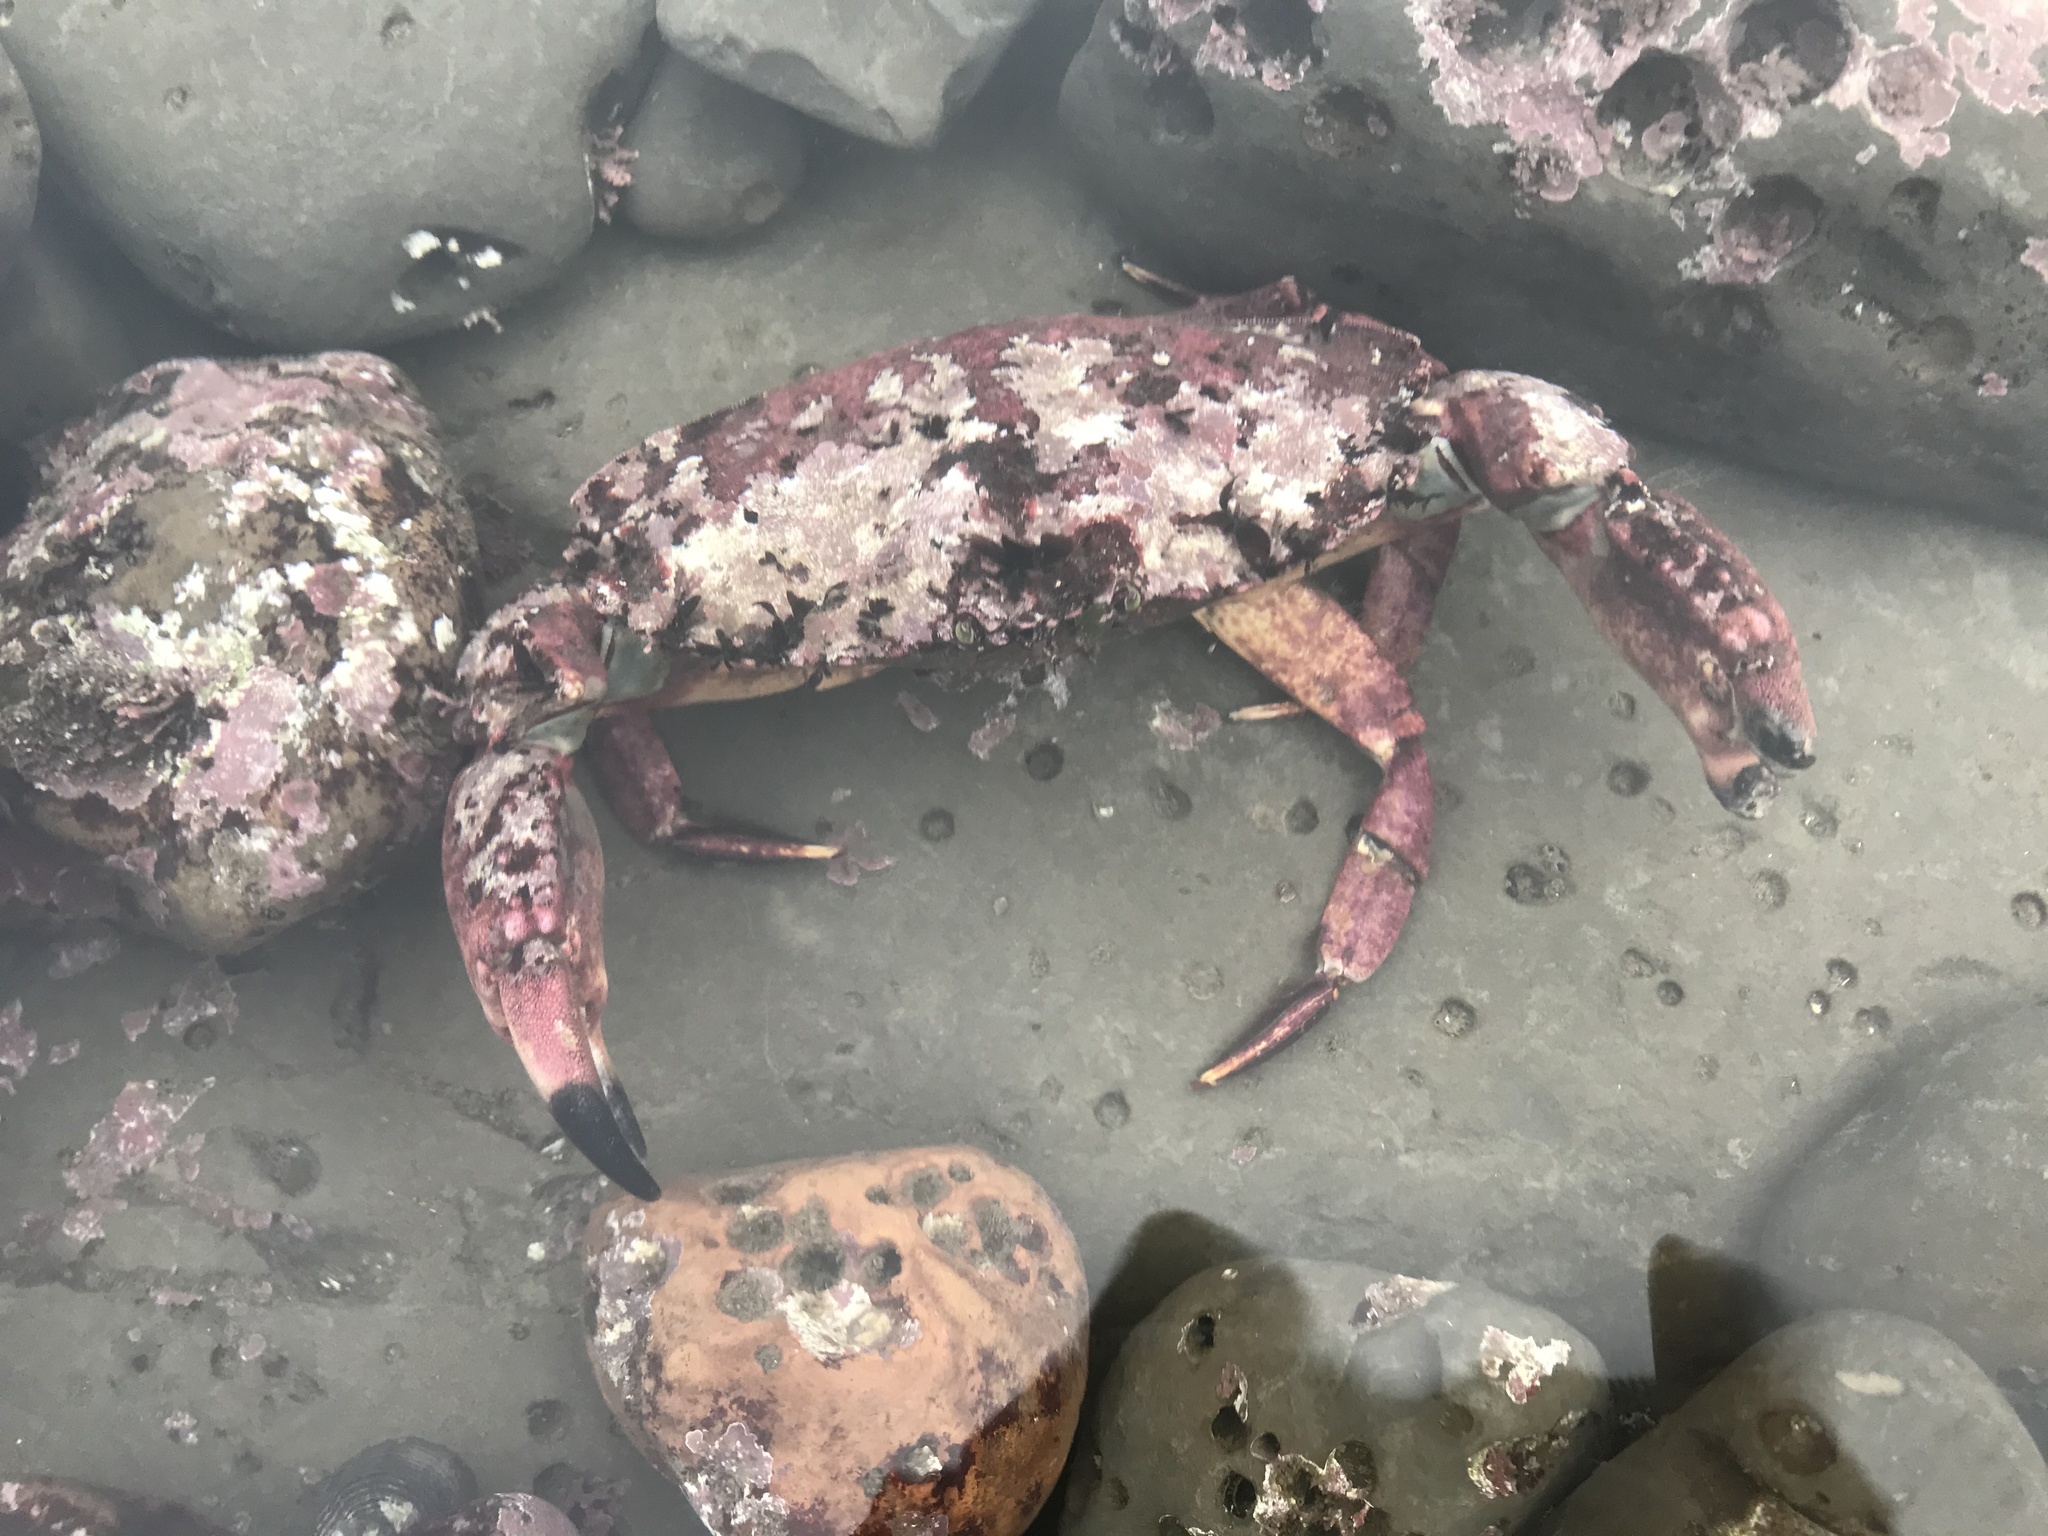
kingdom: Animalia
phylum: Arthropoda
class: Malacostraca
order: Decapoda
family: Cancridae
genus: Cancer
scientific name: Cancer productus
